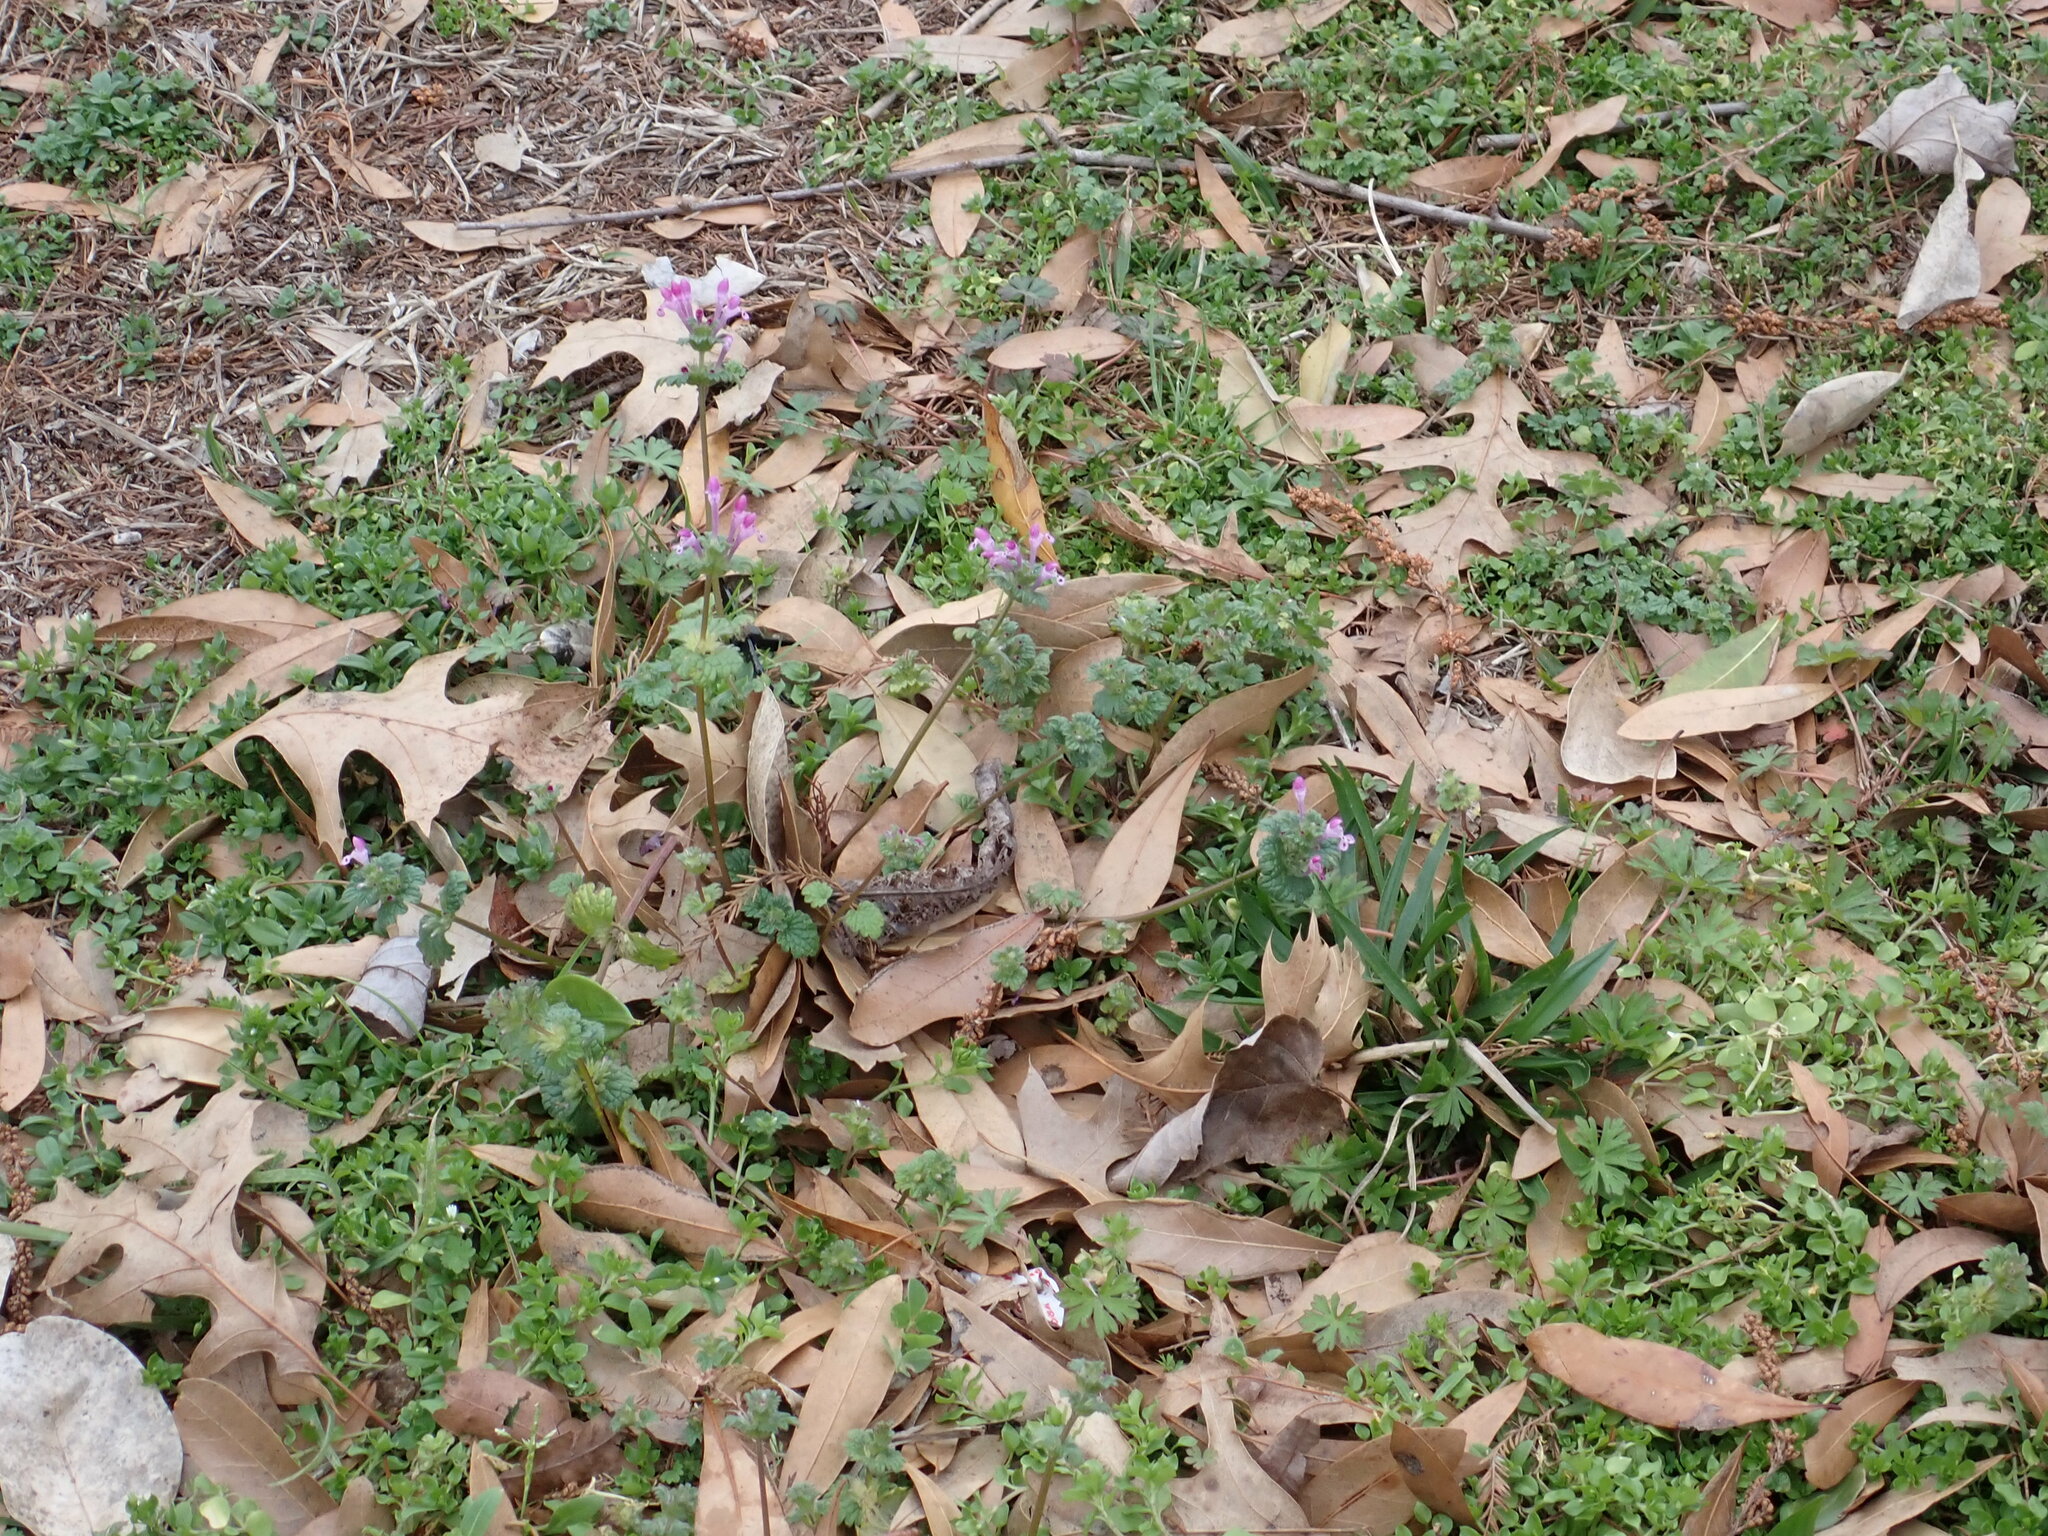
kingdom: Plantae
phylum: Tracheophyta
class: Magnoliopsida
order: Lamiales
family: Lamiaceae
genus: Lamium
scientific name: Lamium amplexicaule
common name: Henbit dead-nettle
